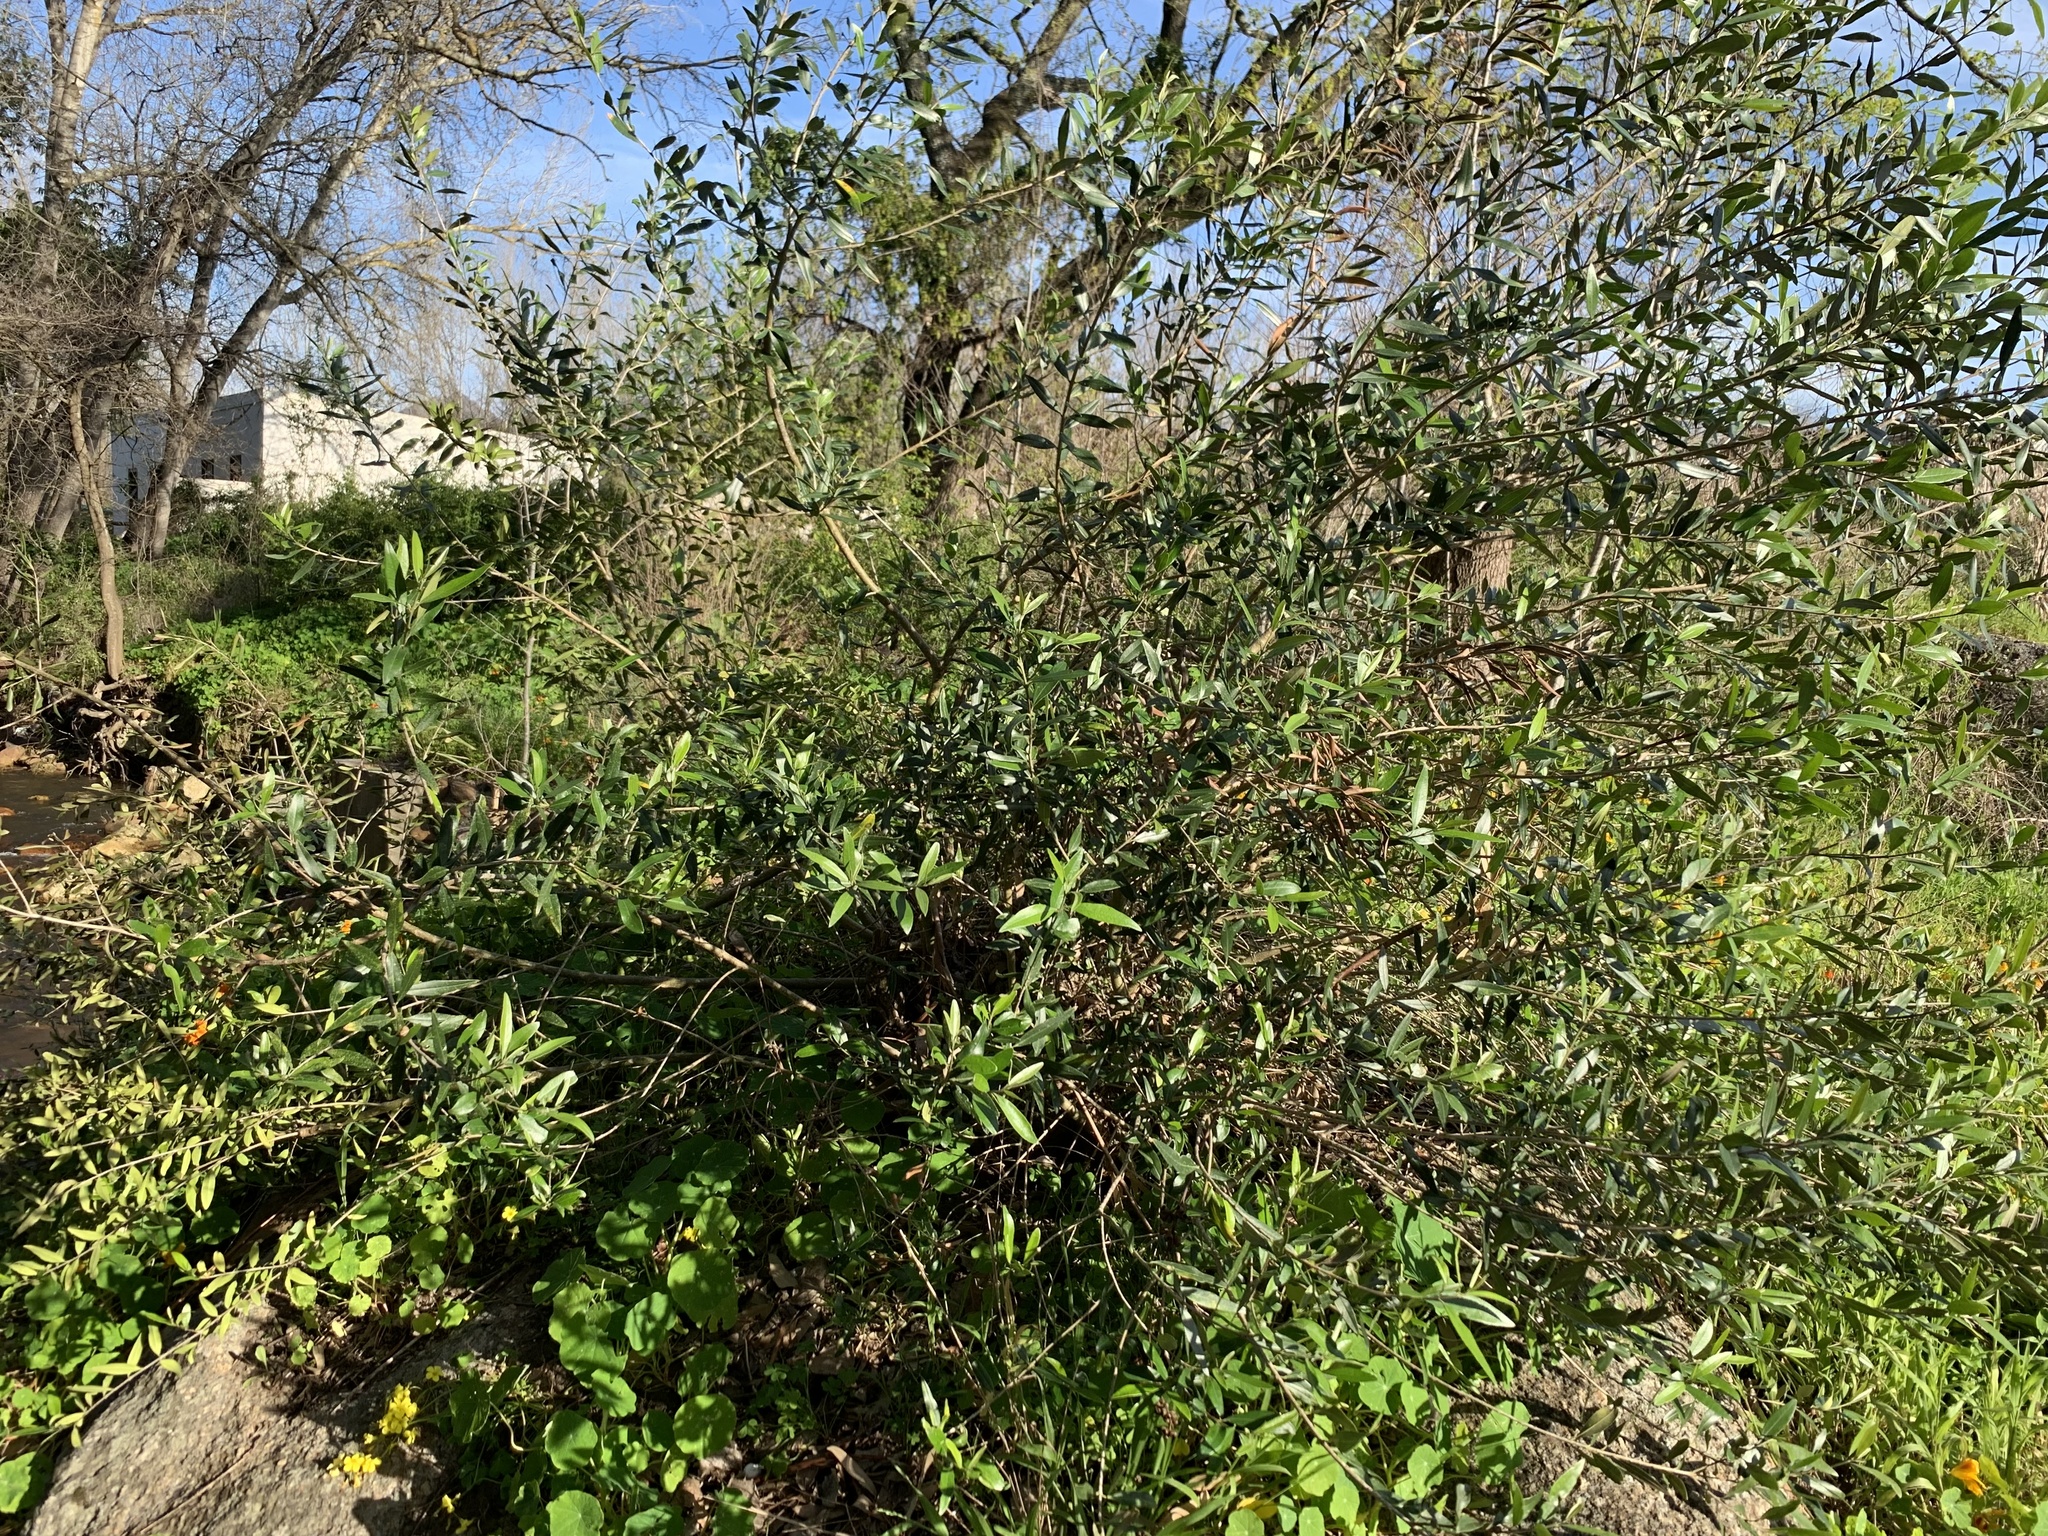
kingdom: Plantae
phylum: Tracheophyta
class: Magnoliopsida
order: Lamiales
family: Oleaceae
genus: Olea
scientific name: Olea europaea
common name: Olive
